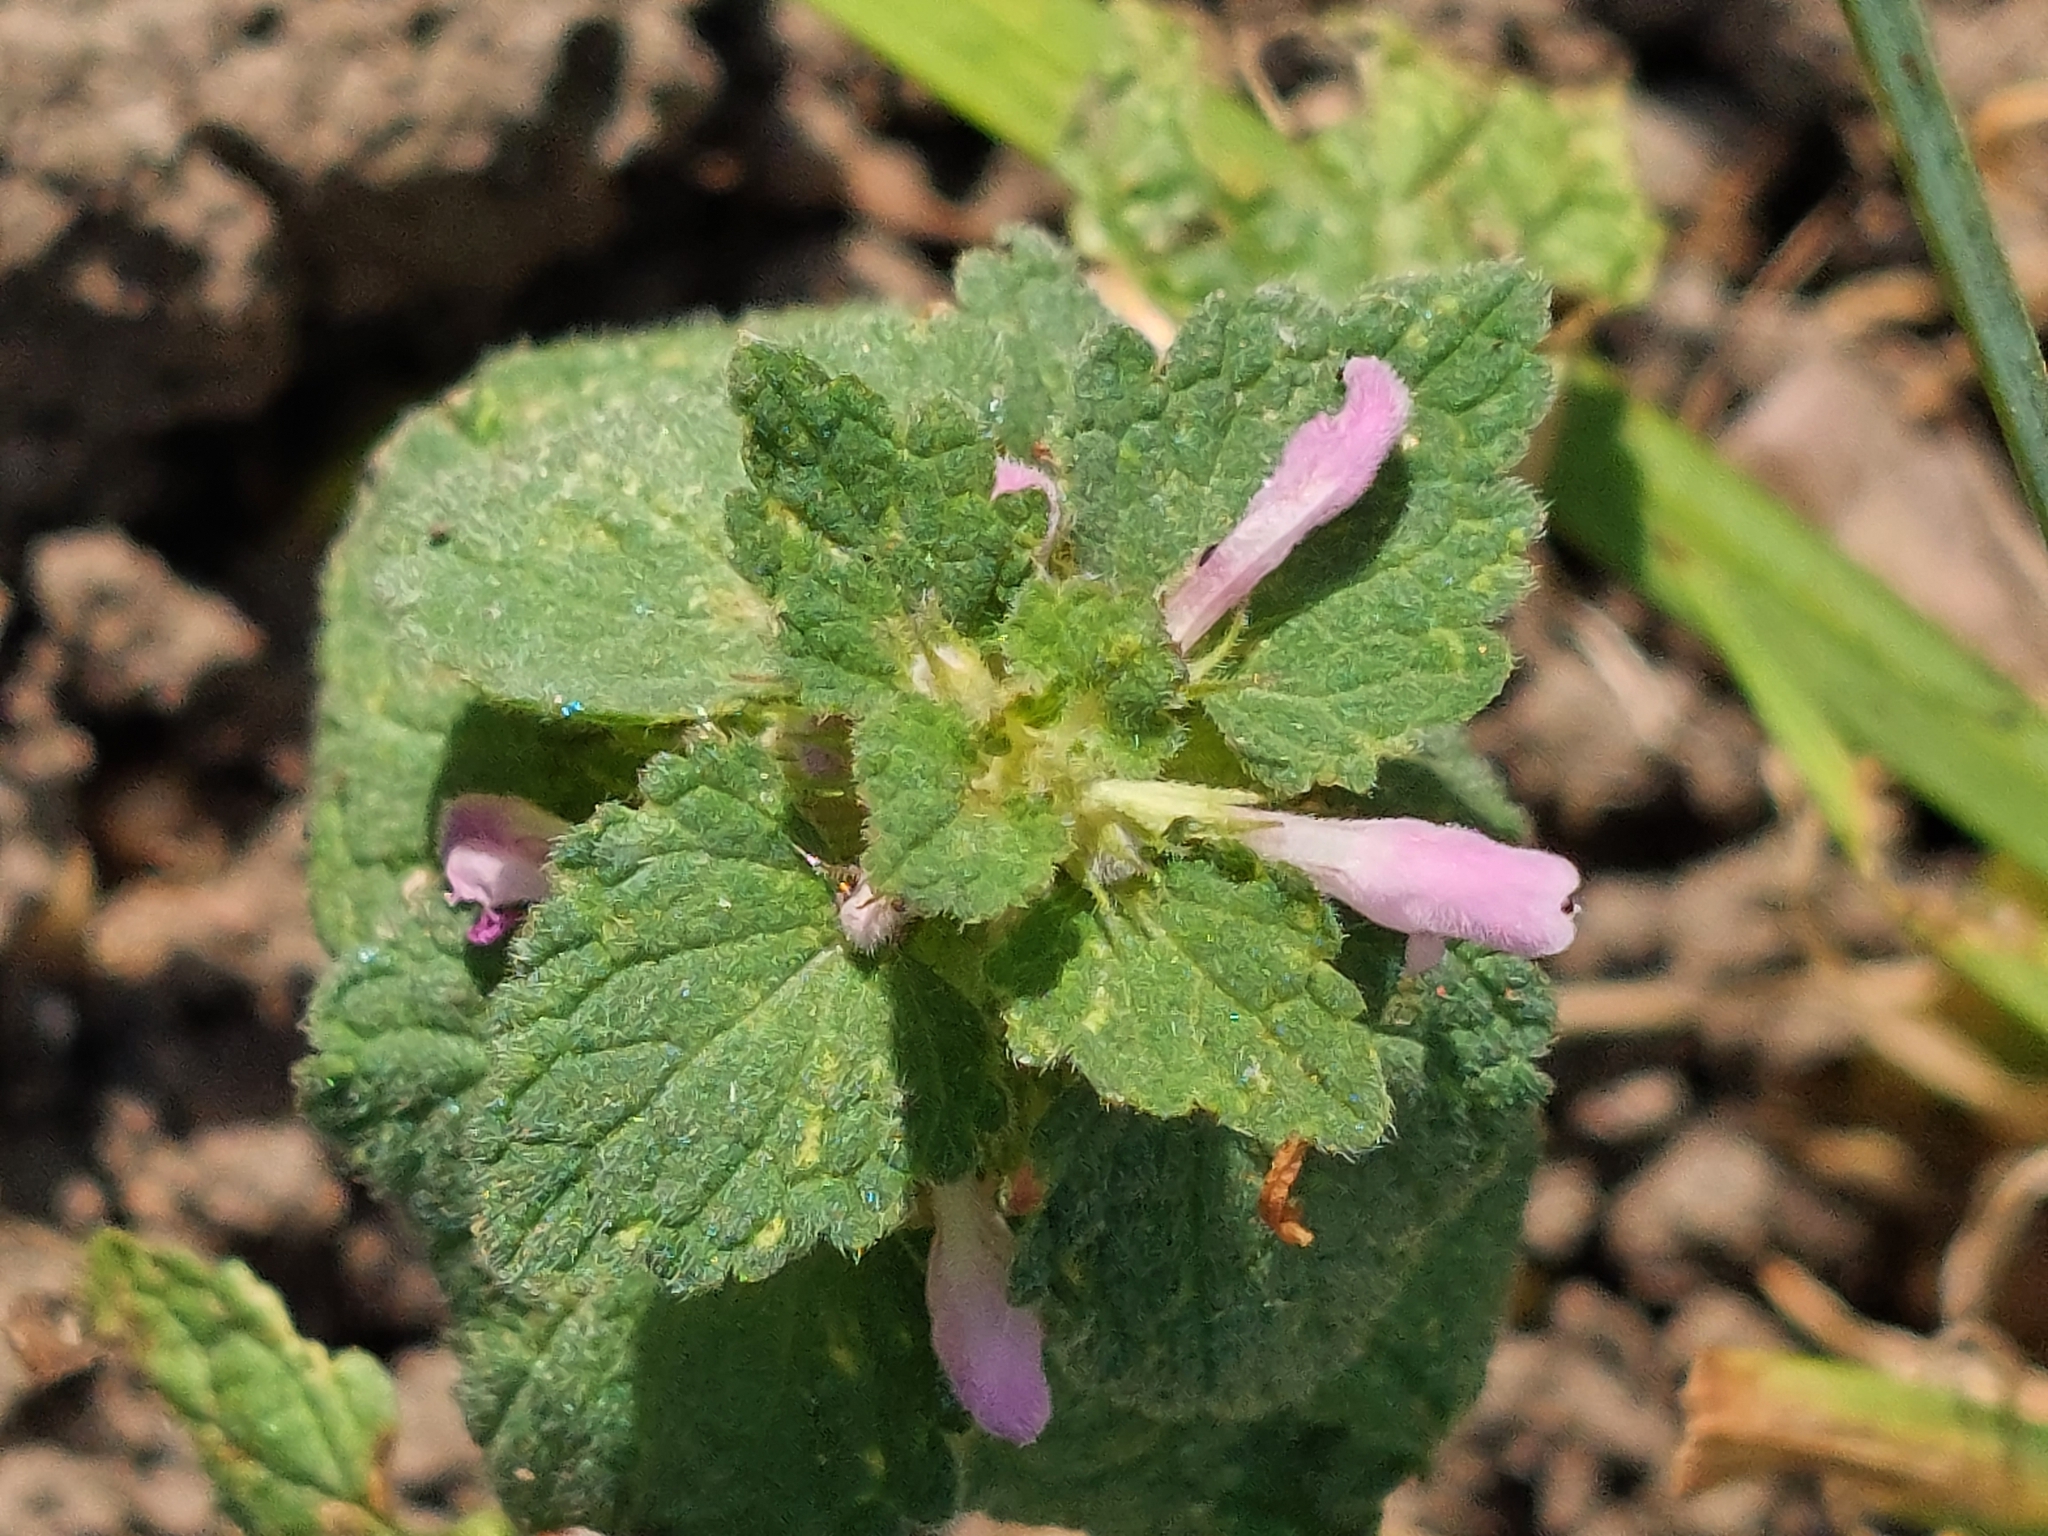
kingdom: Plantae
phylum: Tracheophyta
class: Magnoliopsida
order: Lamiales
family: Lamiaceae
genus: Lamium
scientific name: Lamium purpureum
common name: Red dead-nettle
